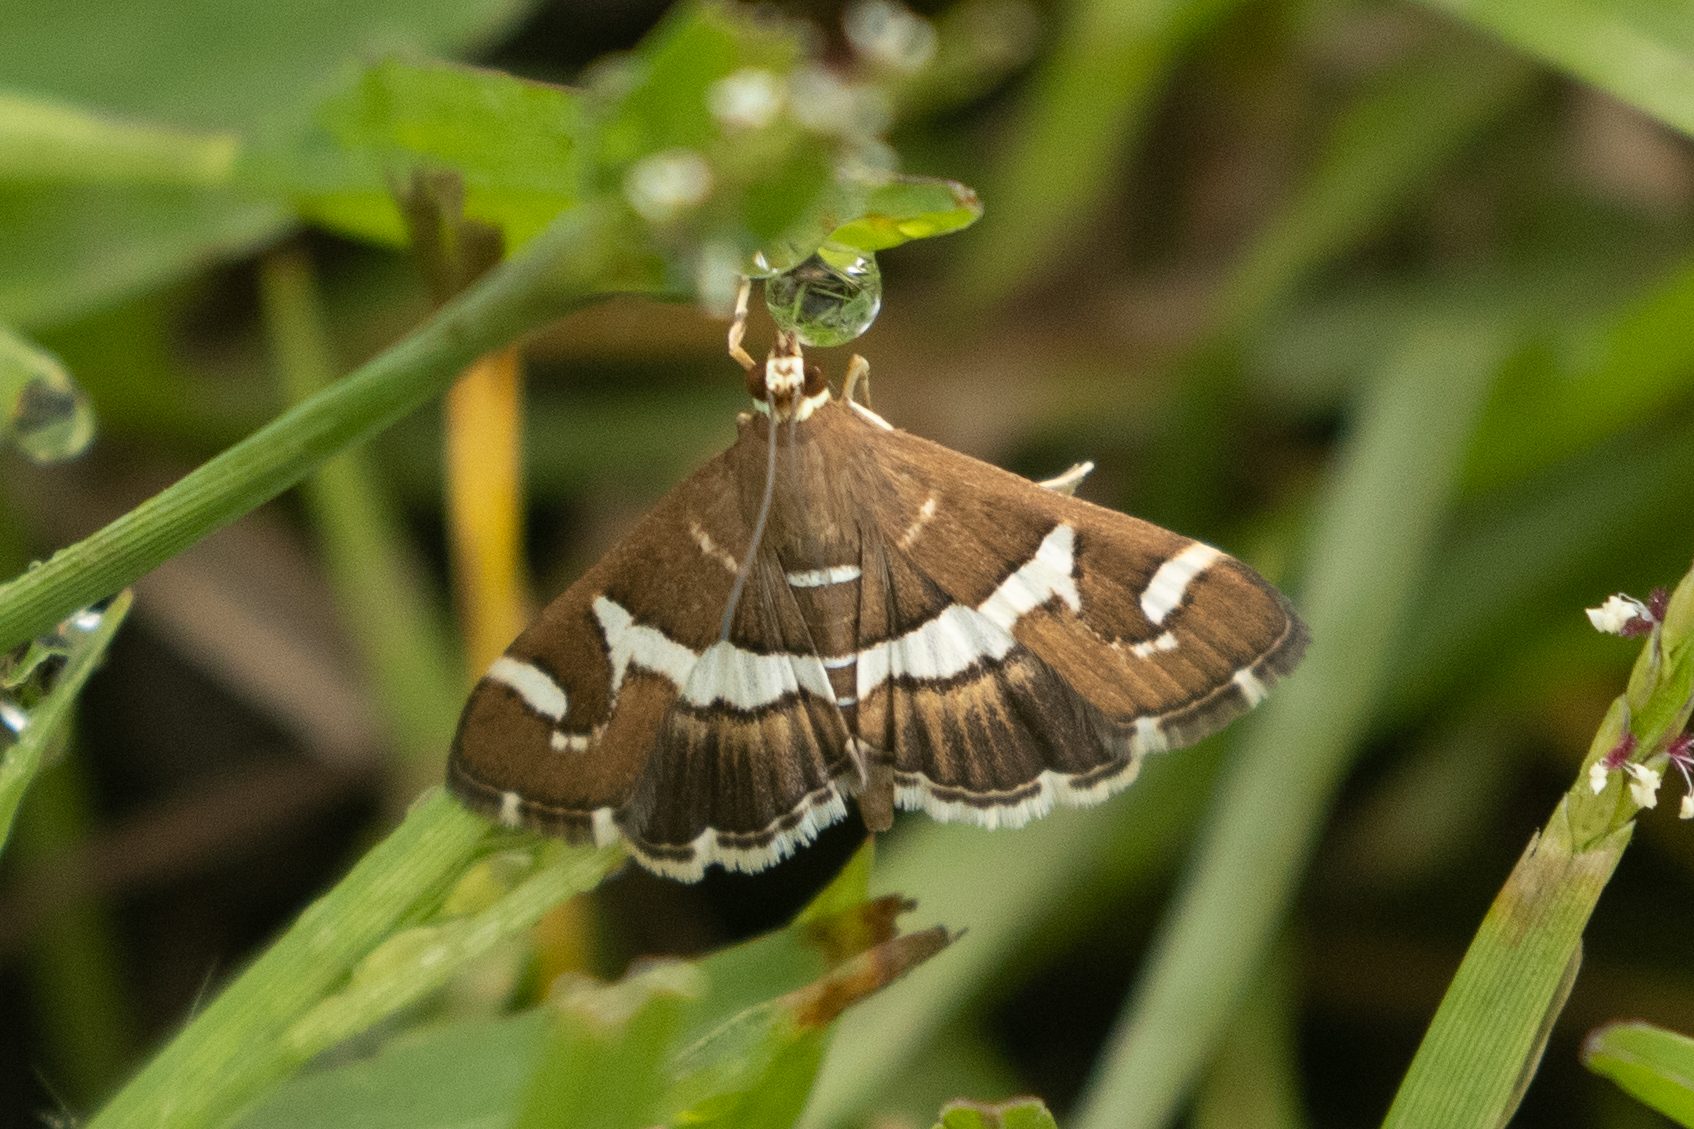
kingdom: Animalia
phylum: Arthropoda
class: Insecta
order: Lepidoptera
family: Crambidae
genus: Spoladea
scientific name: Spoladea recurvalis
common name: Beet webworm moth
